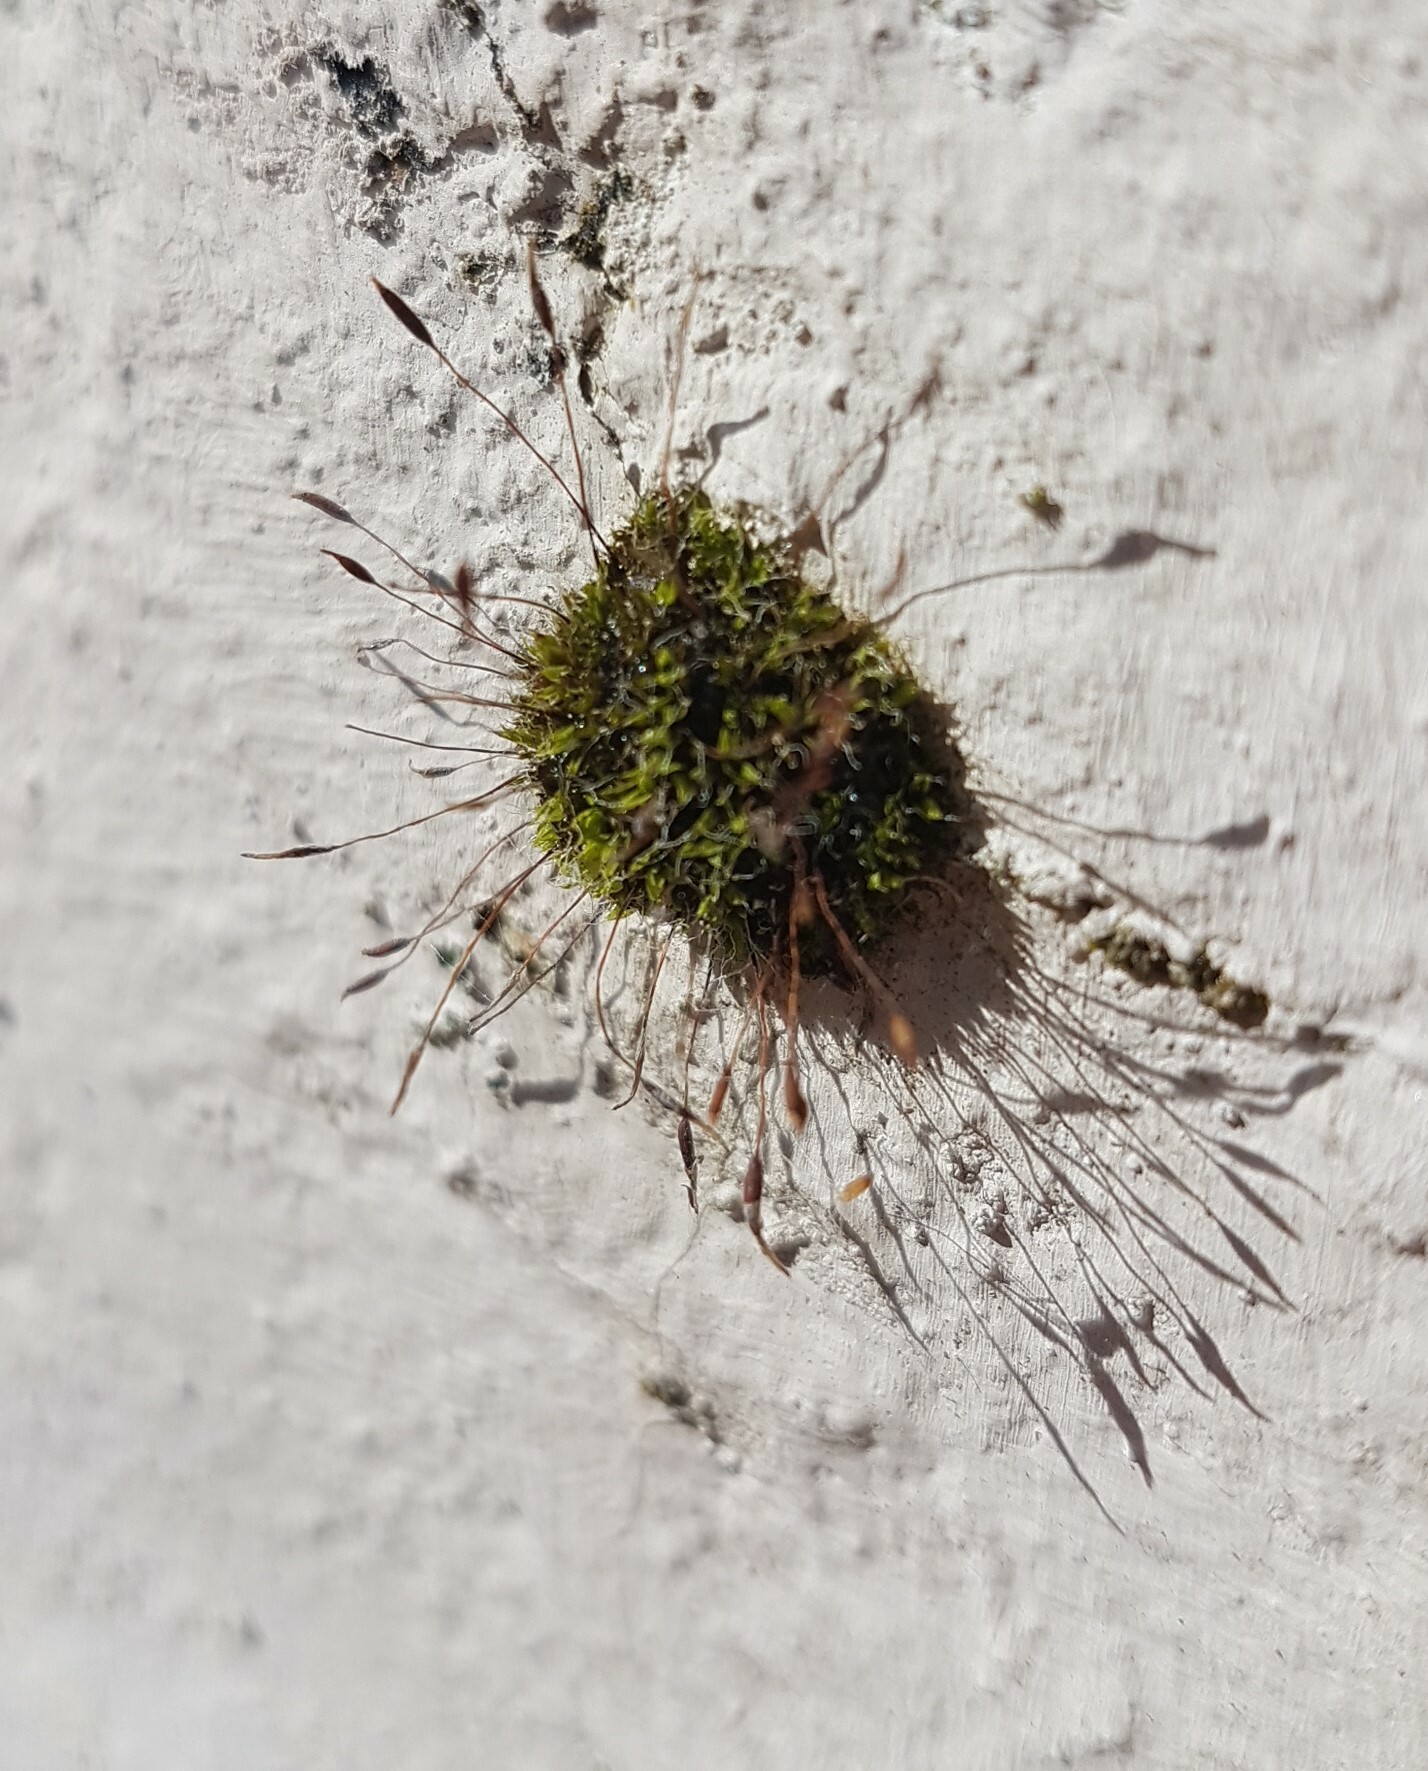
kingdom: Plantae
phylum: Bryophyta
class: Bryopsida
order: Pottiales
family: Pottiaceae
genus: Tortula
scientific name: Tortula muralis
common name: Wall screw-moss
